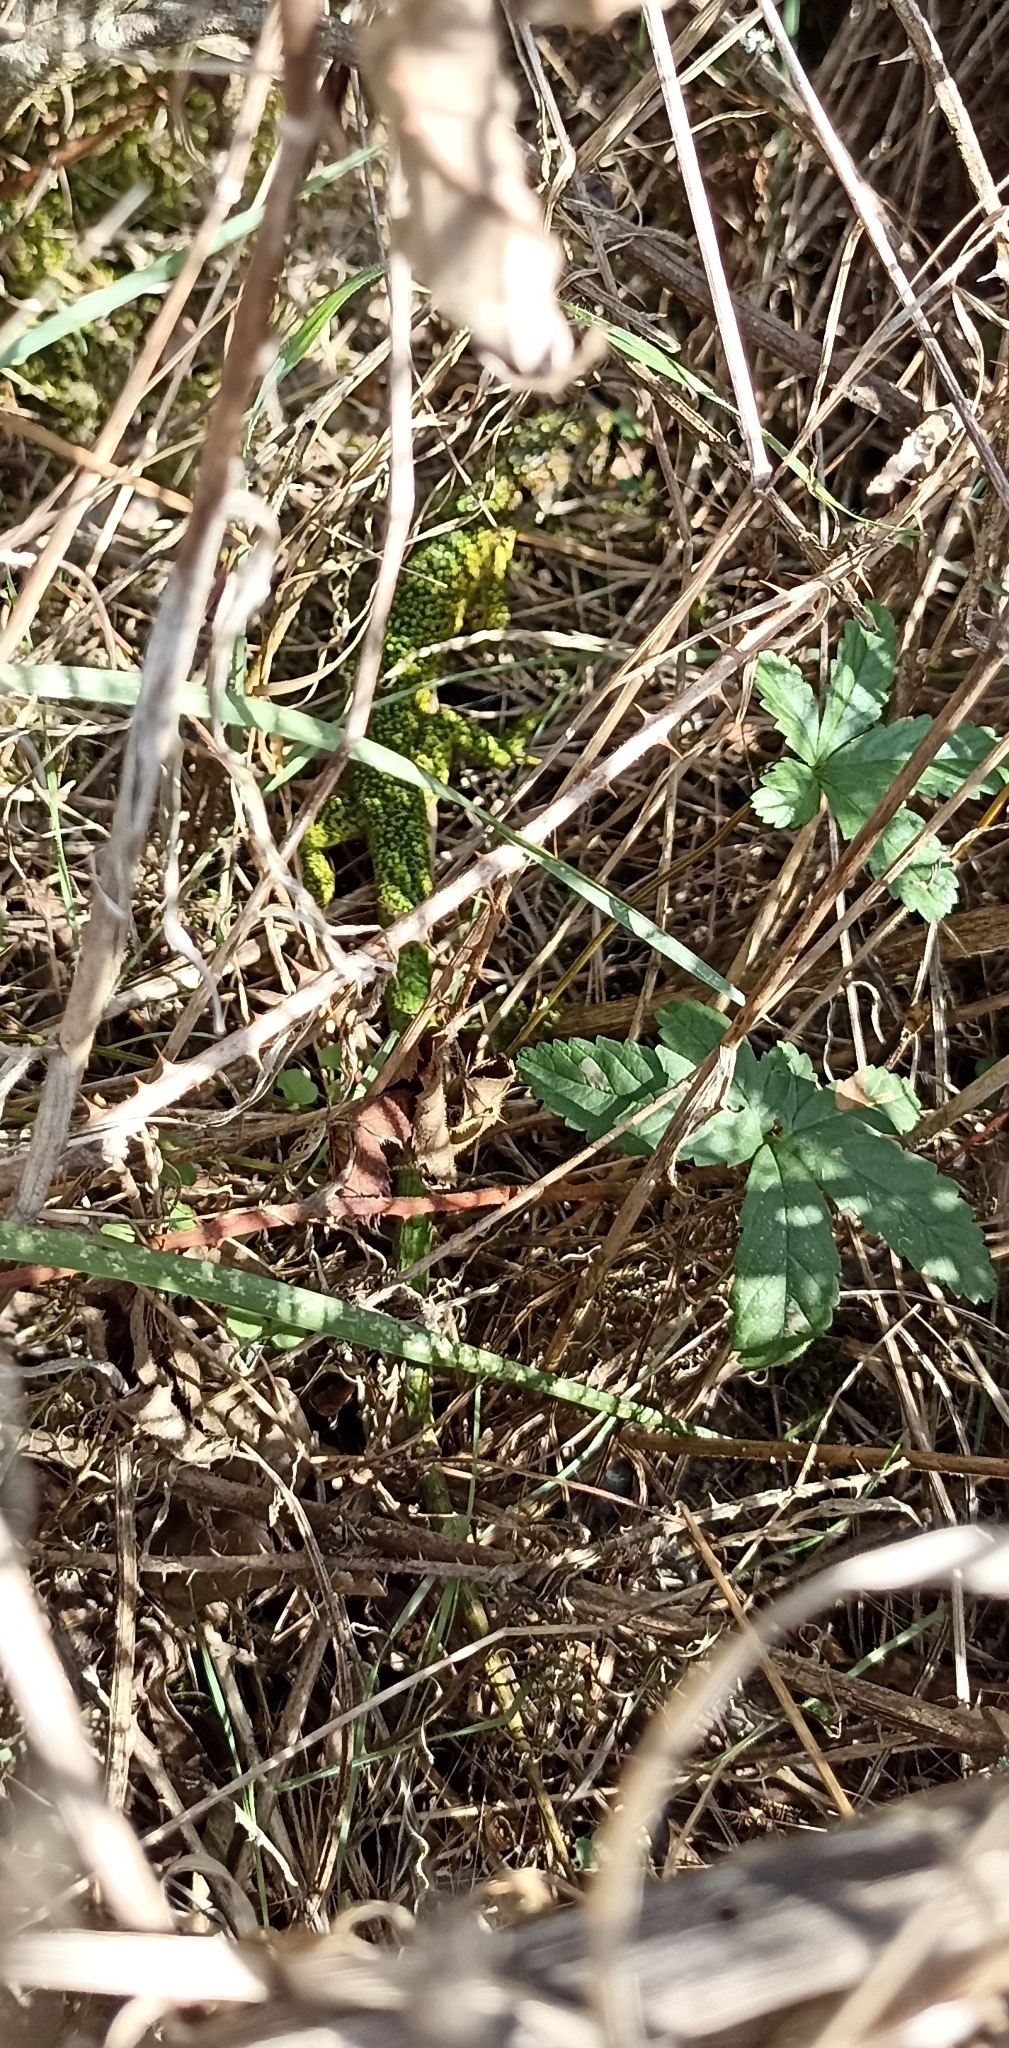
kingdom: Animalia
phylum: Chordata
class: Squamata
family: Lacertidae
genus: Lacerta
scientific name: Lacerta bilineata
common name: Western green lizard
